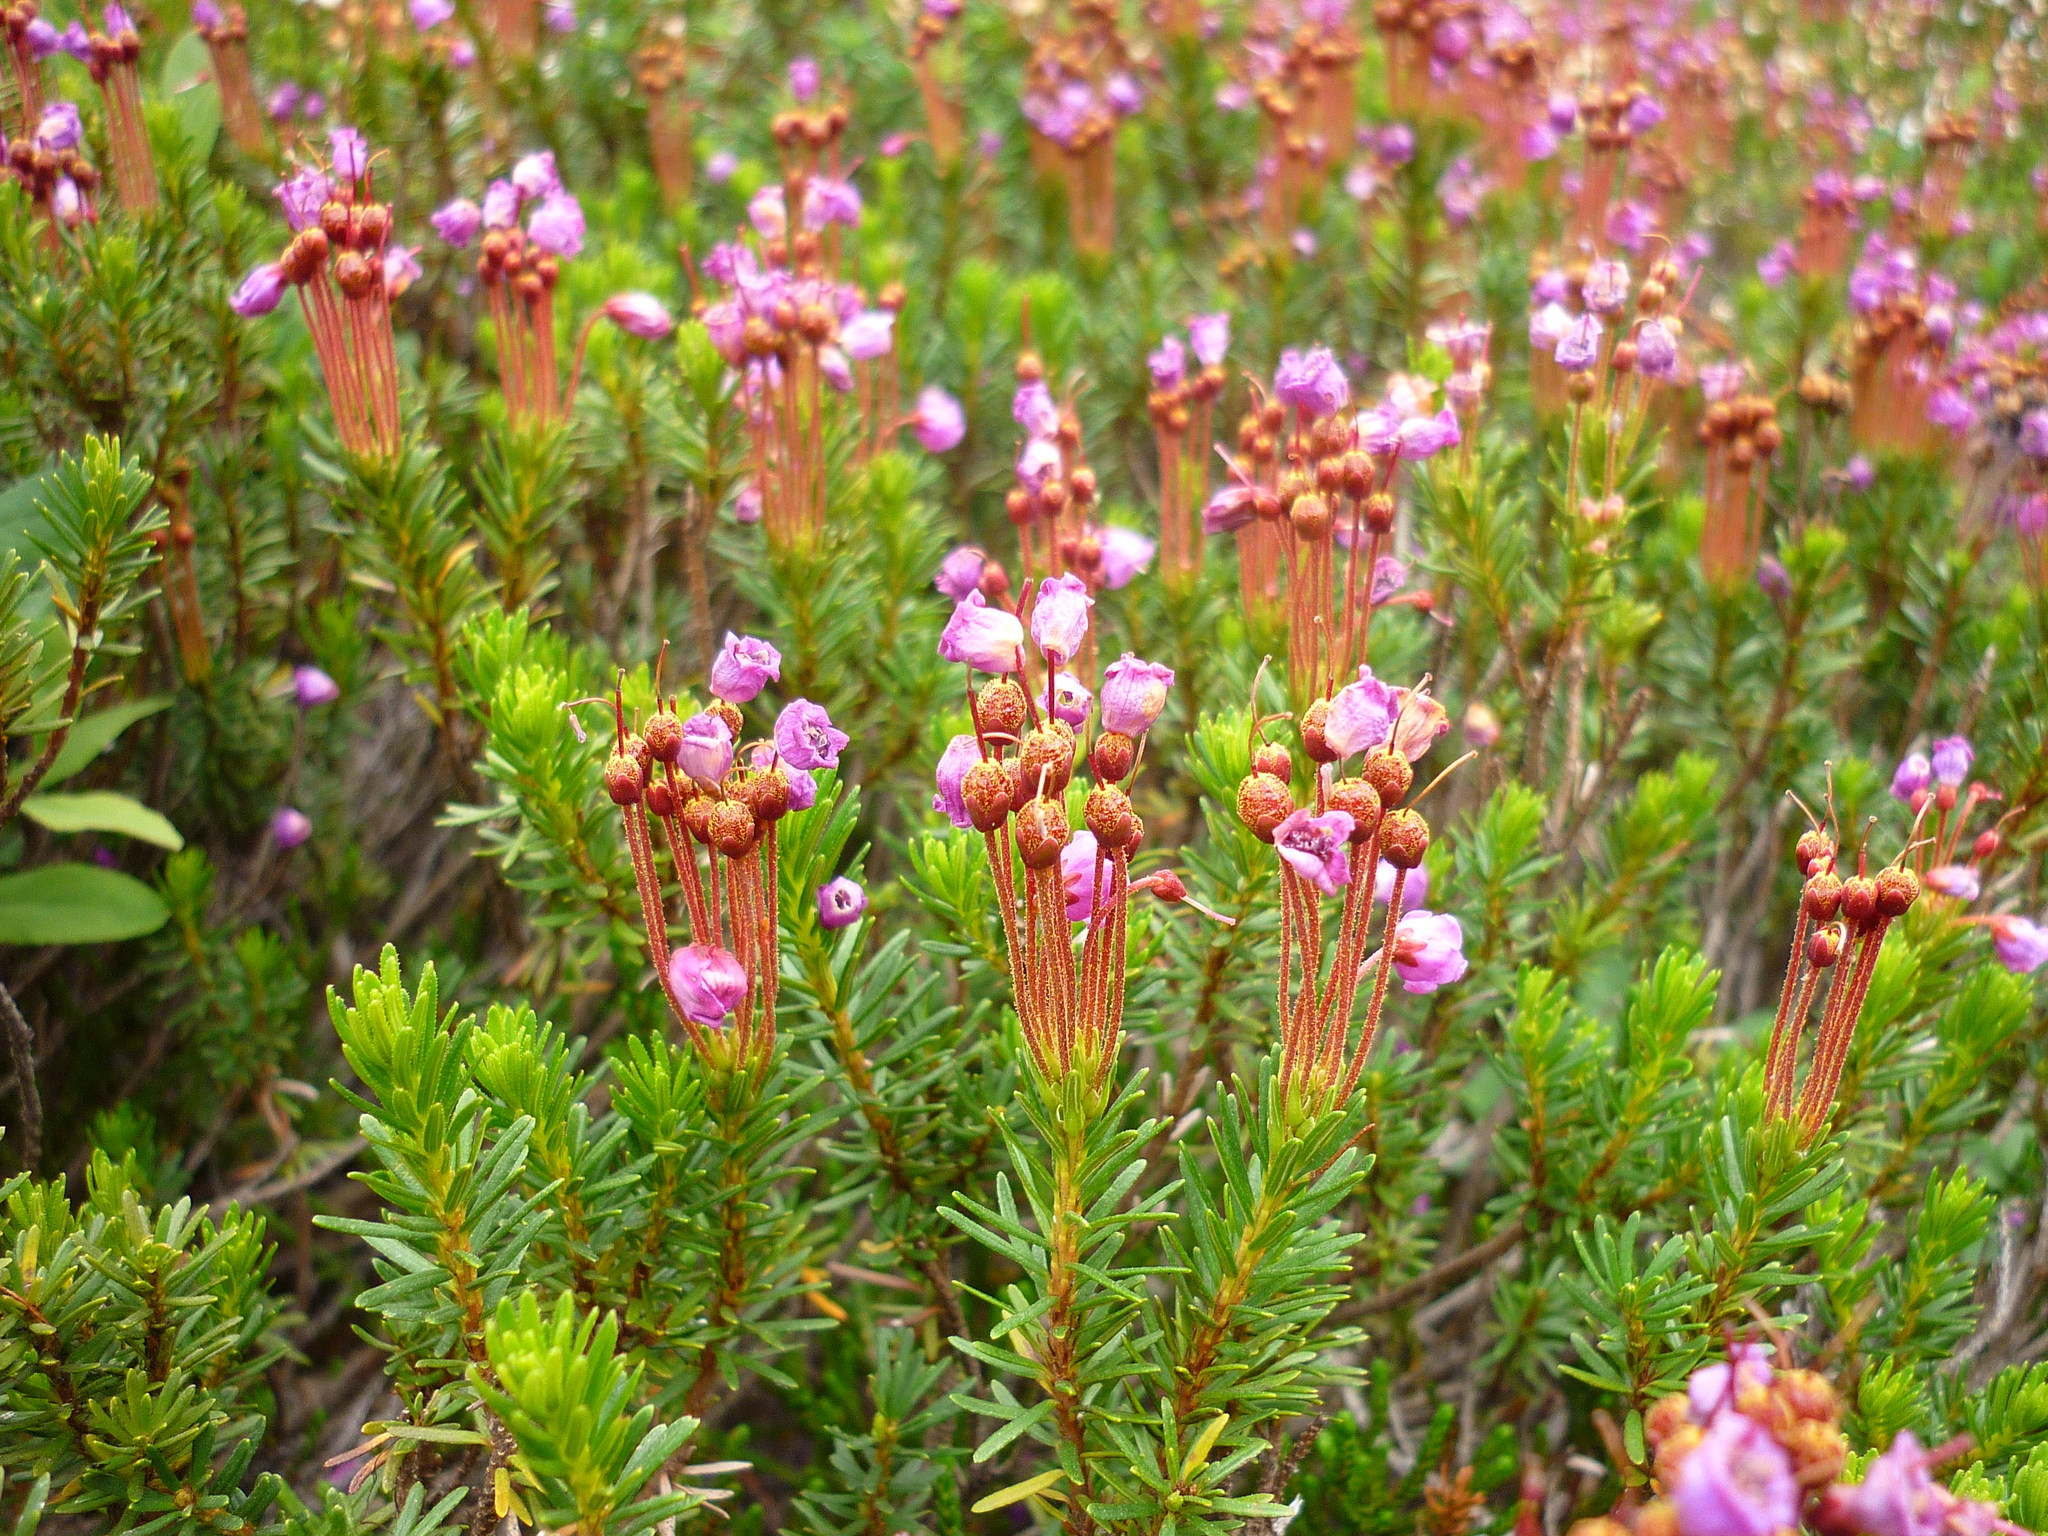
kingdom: Plantae
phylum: Tracheophyta
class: Magnoliopsida
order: Ericales
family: Ericaceae
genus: Phyllodoce
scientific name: Phyllodoce empetriformis
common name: Pink mountain heather
